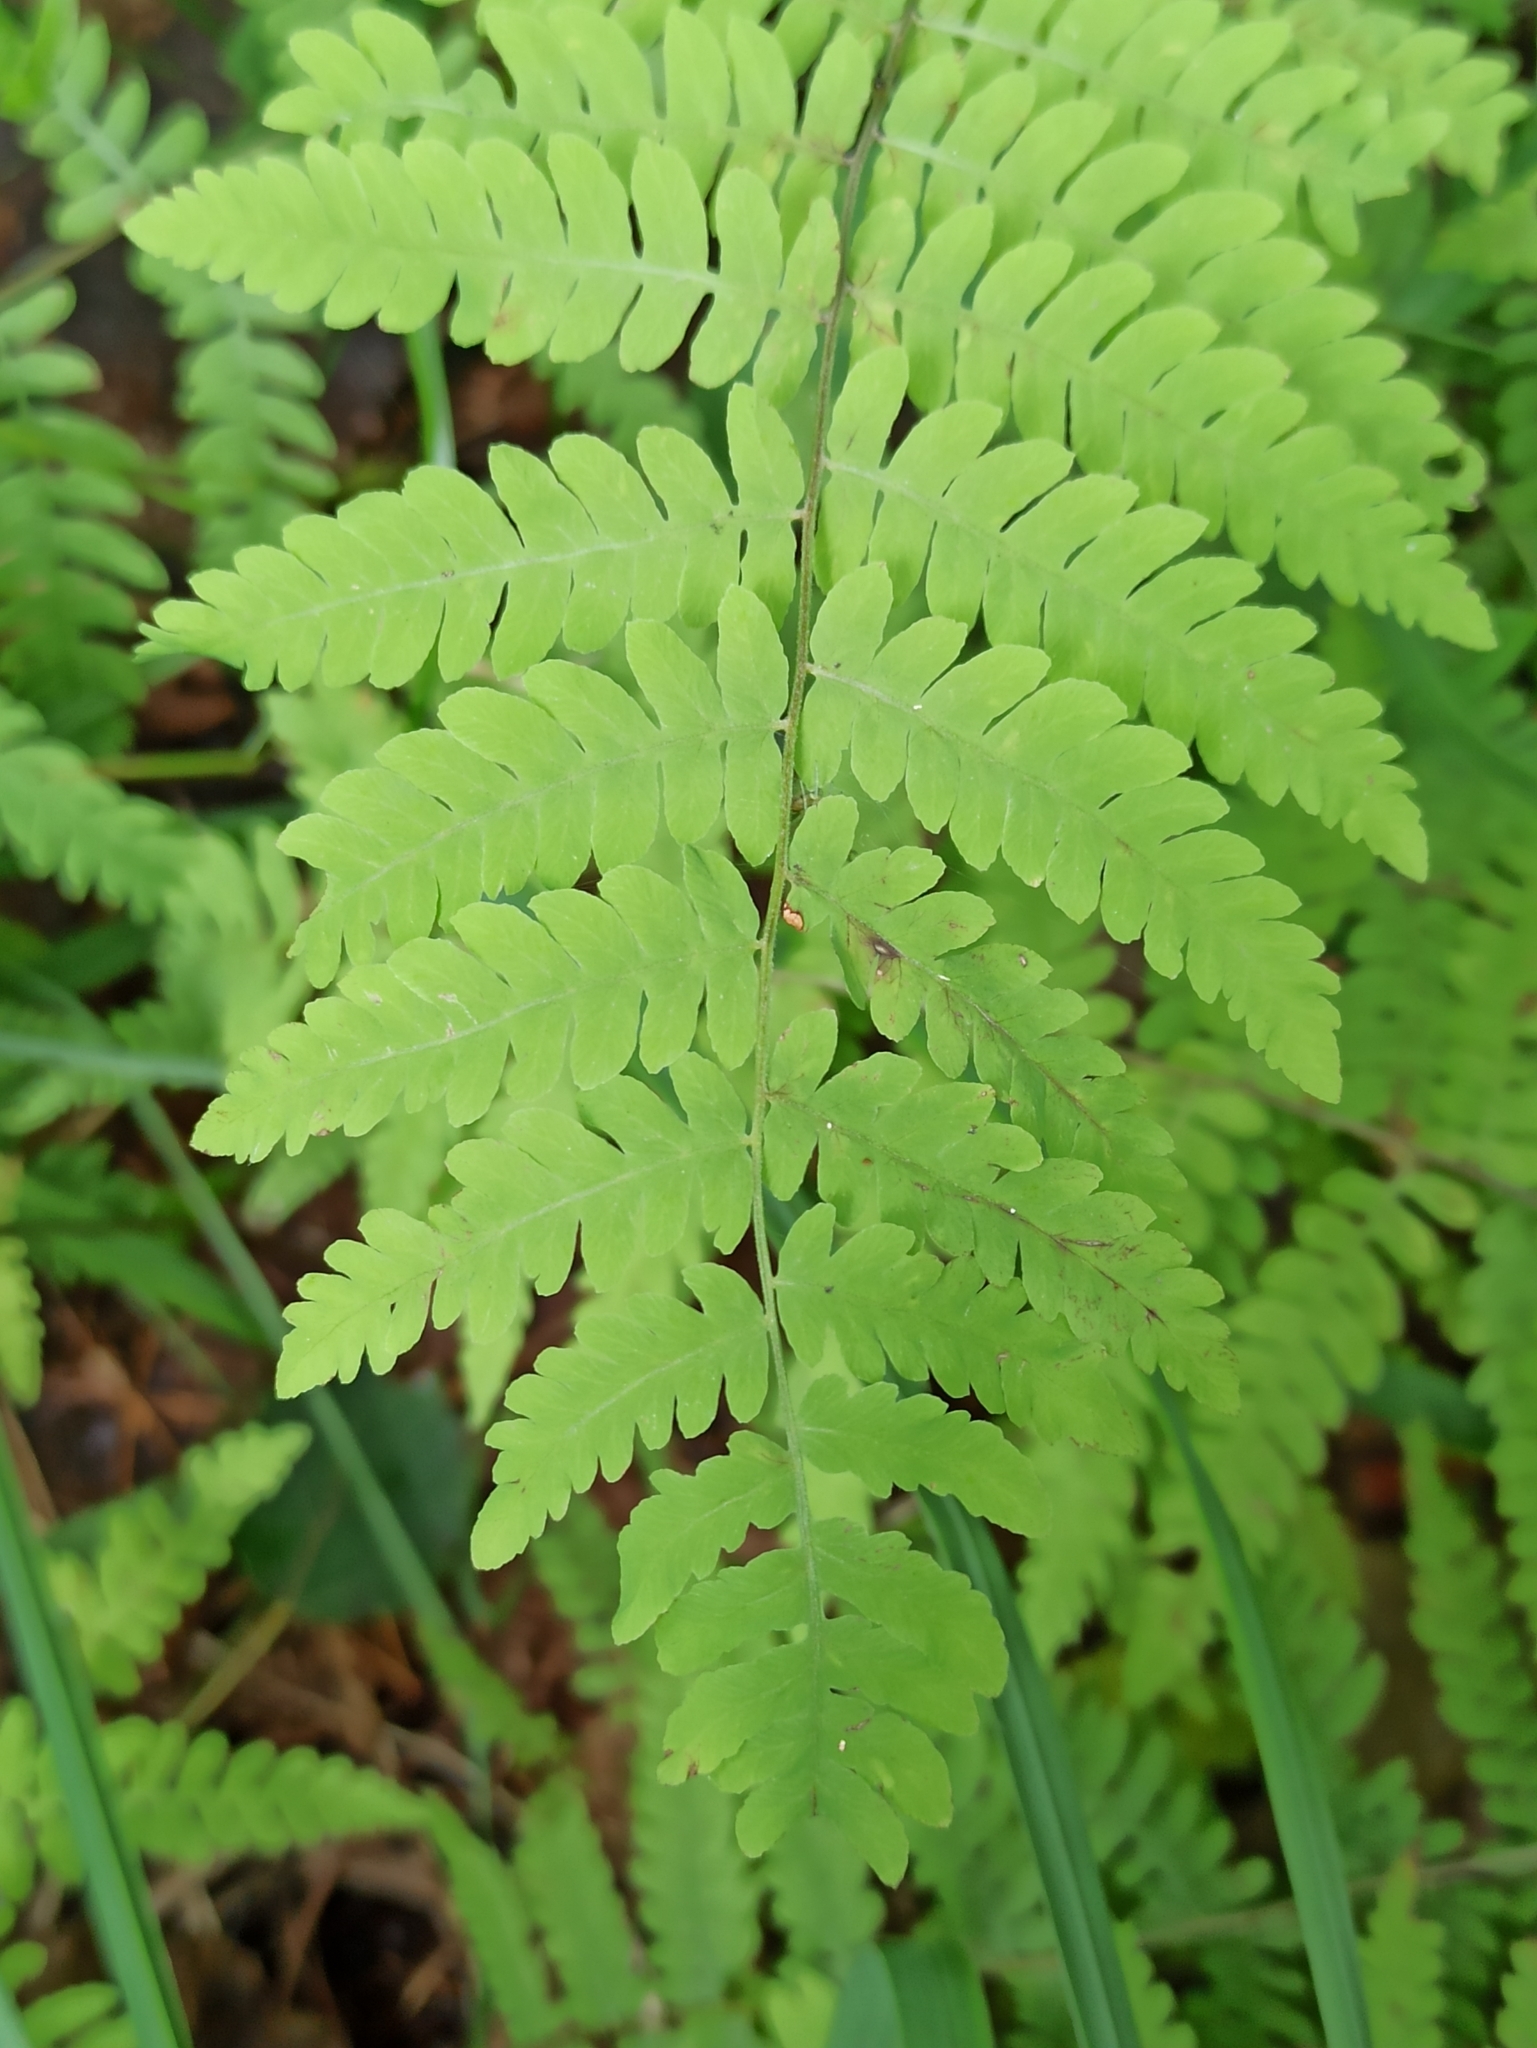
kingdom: Plantae
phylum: Tracheophyta
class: Polypodiopsida
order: Polypodiales
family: Thelypteridaceae
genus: Thelypteris
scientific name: Thelypteris palustris
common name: Marsh fern
